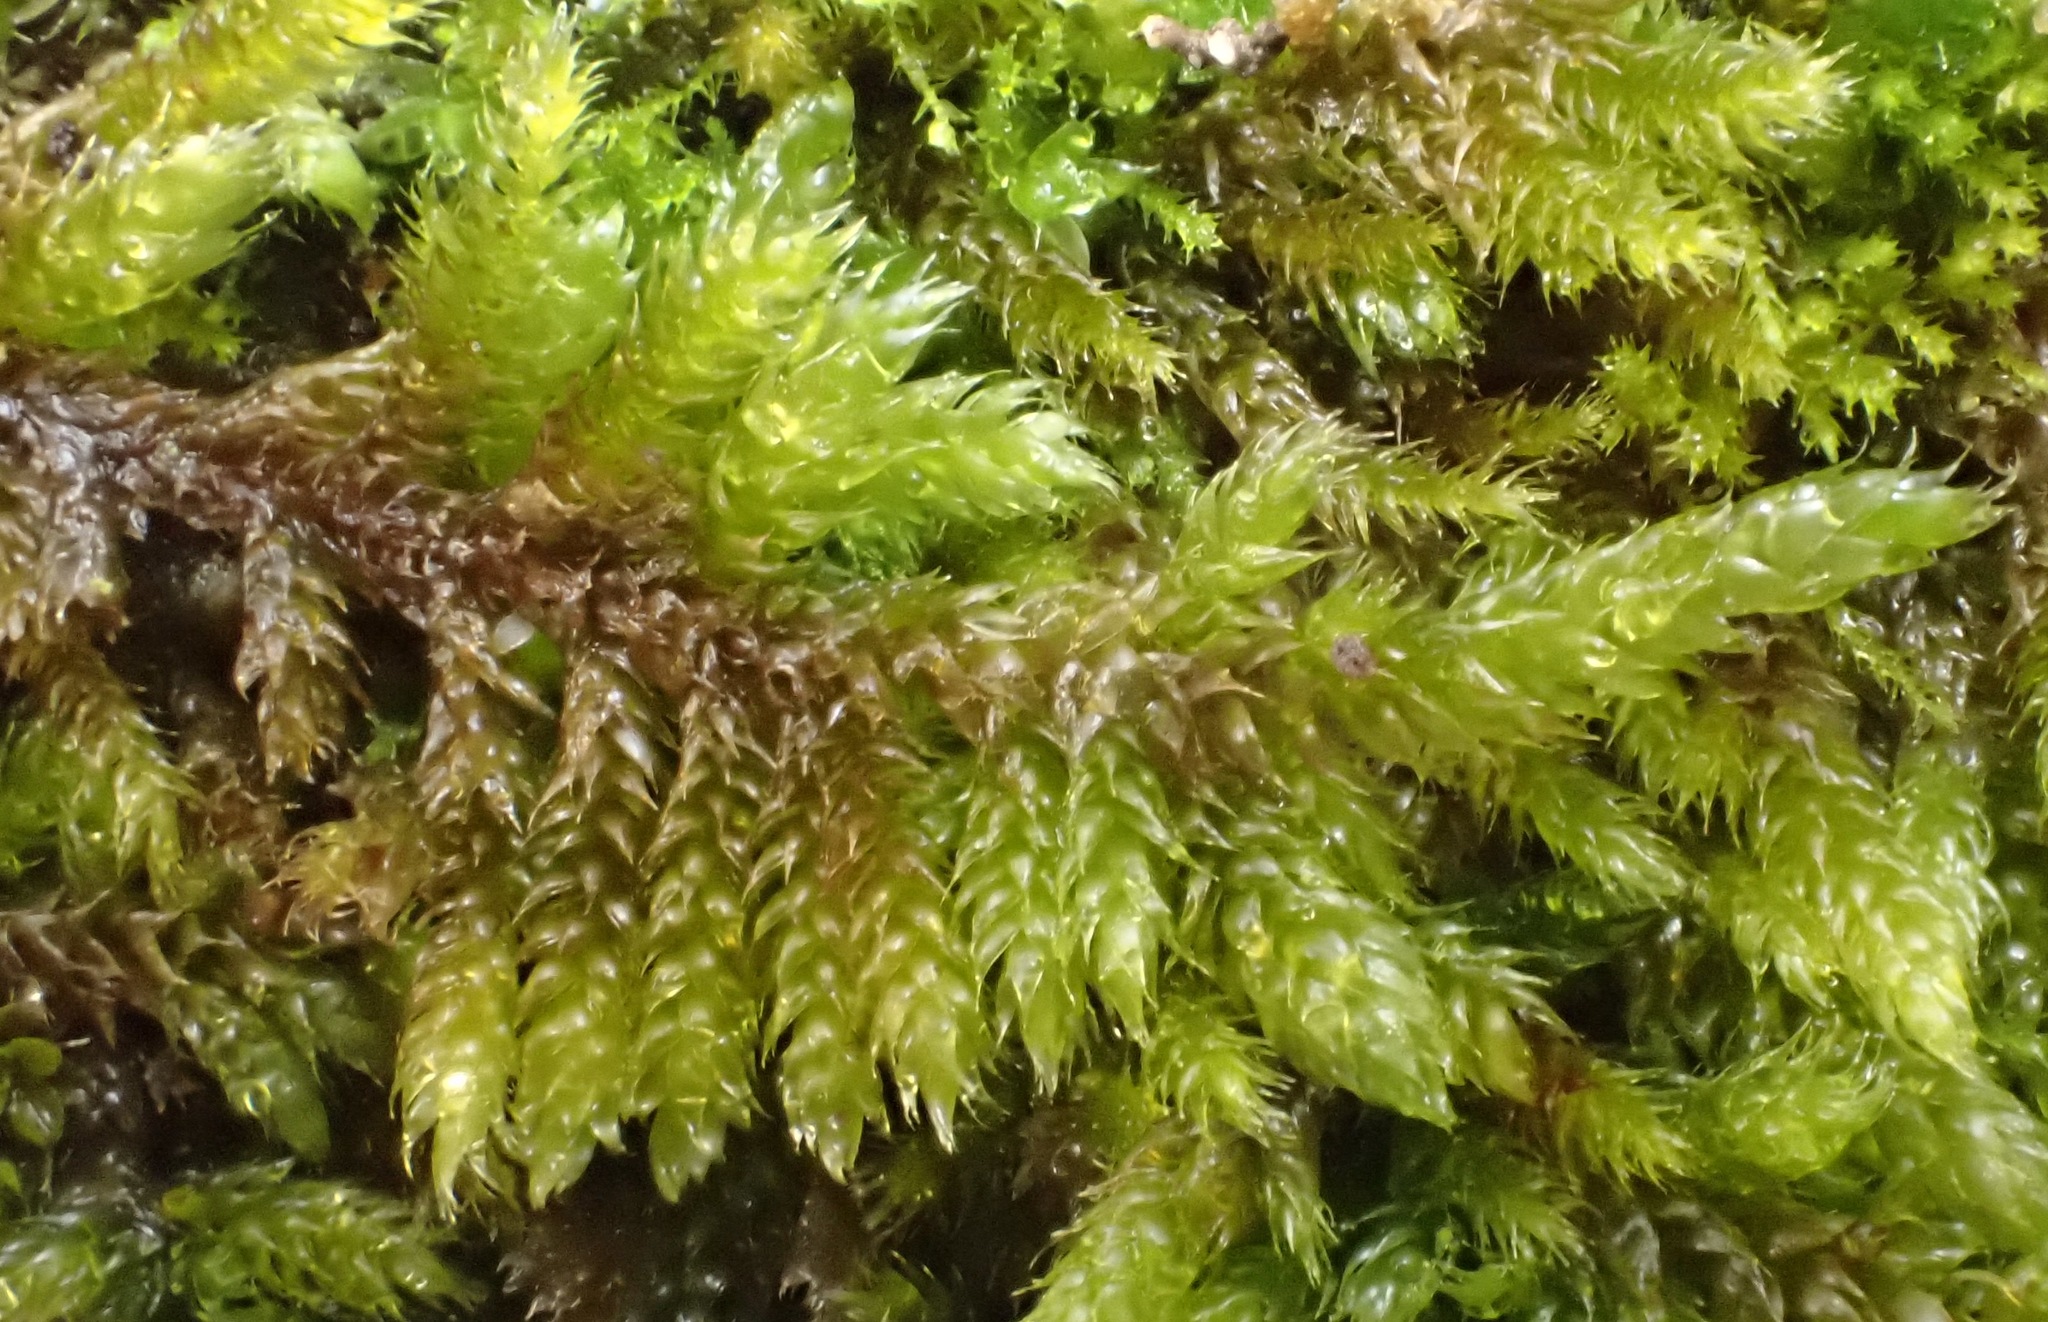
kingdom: Plantae
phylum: Bryophyta
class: Bryopsida
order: Hypnales
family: Hypnaceae
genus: Hypnum
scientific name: Hypnum cupressiforme
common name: Cypress-leaved plait-moss
